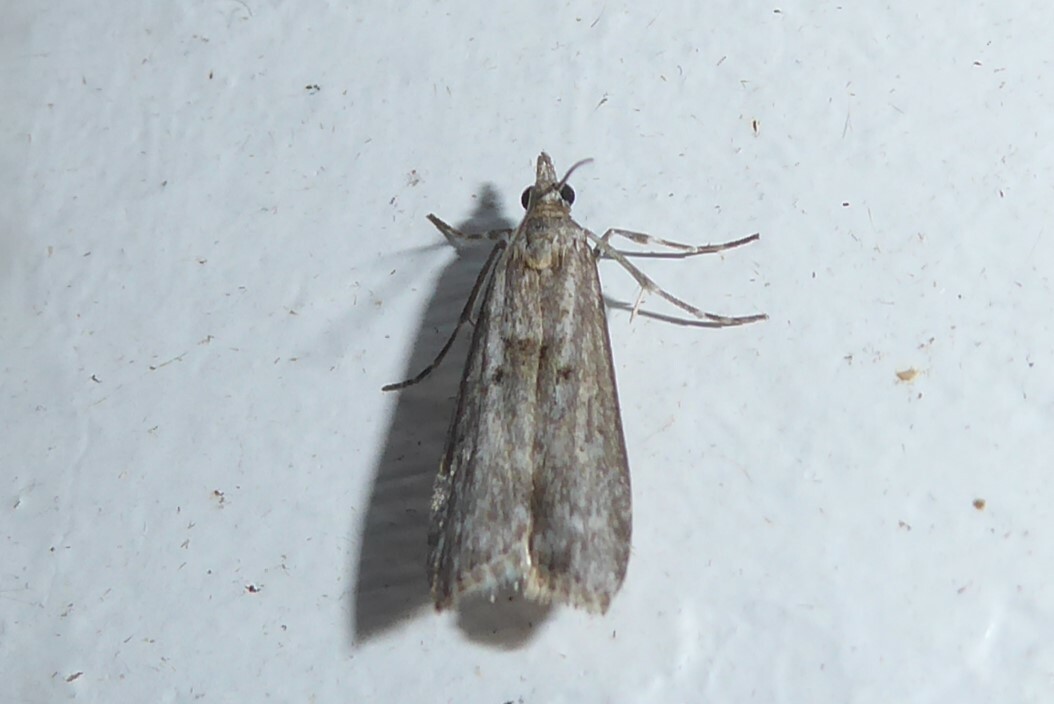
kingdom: Animalia
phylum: Arthropoda
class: Insecta
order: Lepidoptera
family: Crambidae
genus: Eudonia
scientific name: Eudonia leptalea
